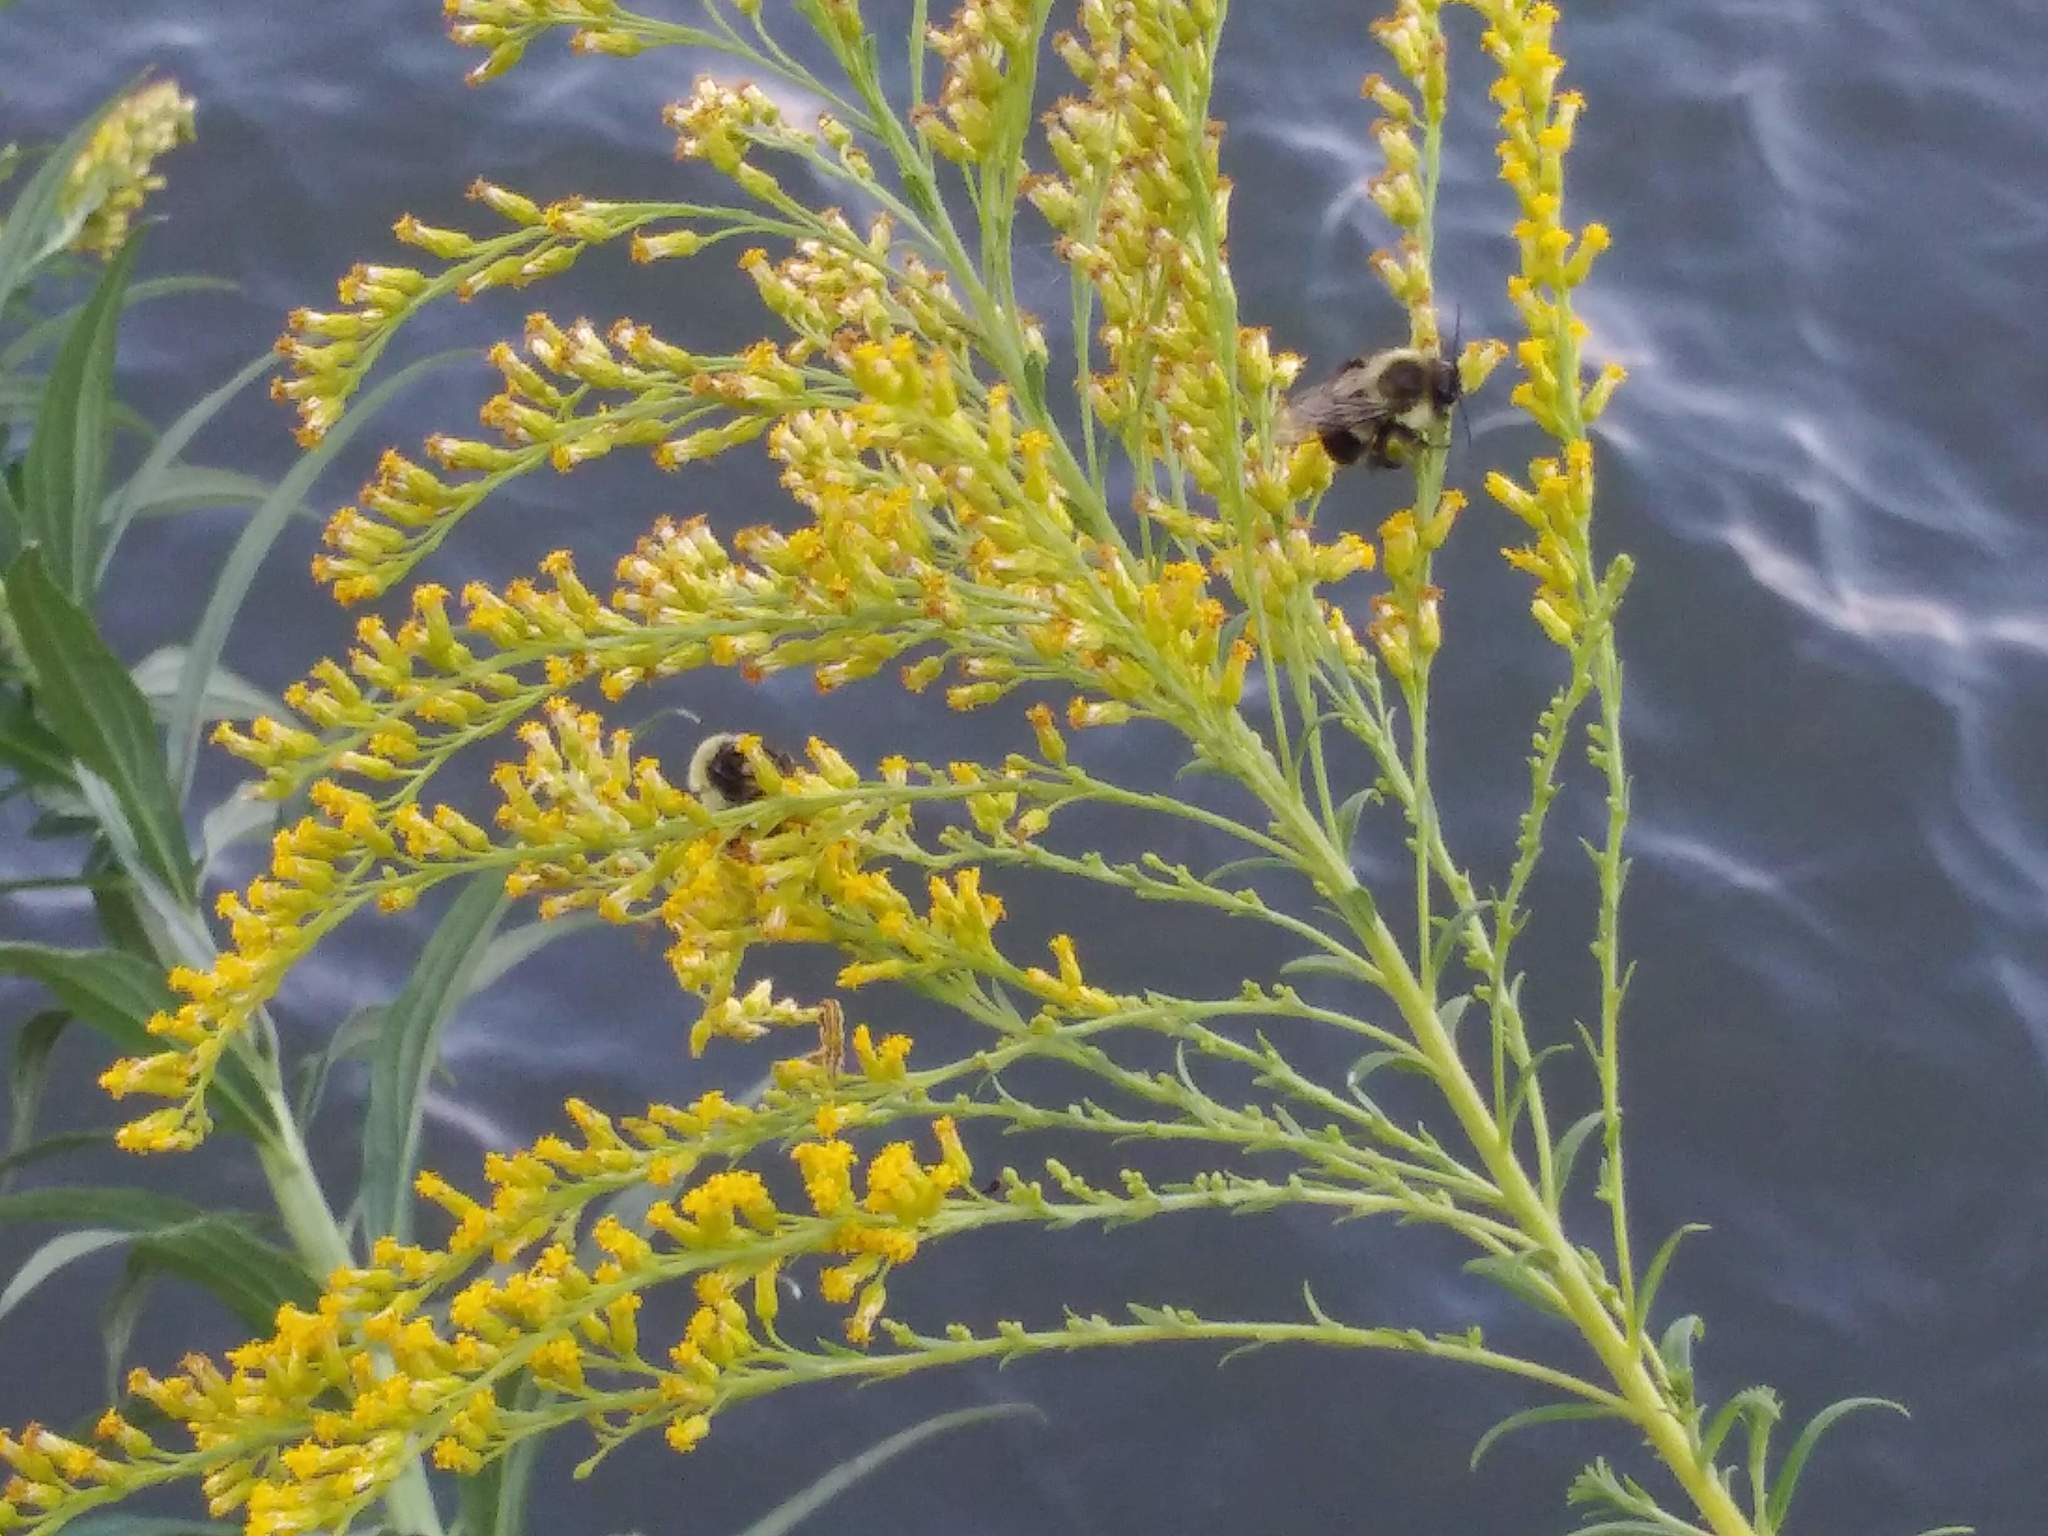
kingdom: Animalia
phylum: Arthropoda
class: Insecta
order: Hymenoptera
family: Apidae
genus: Bombus
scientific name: Bombus impatiens
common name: Common eastern bumble bee
